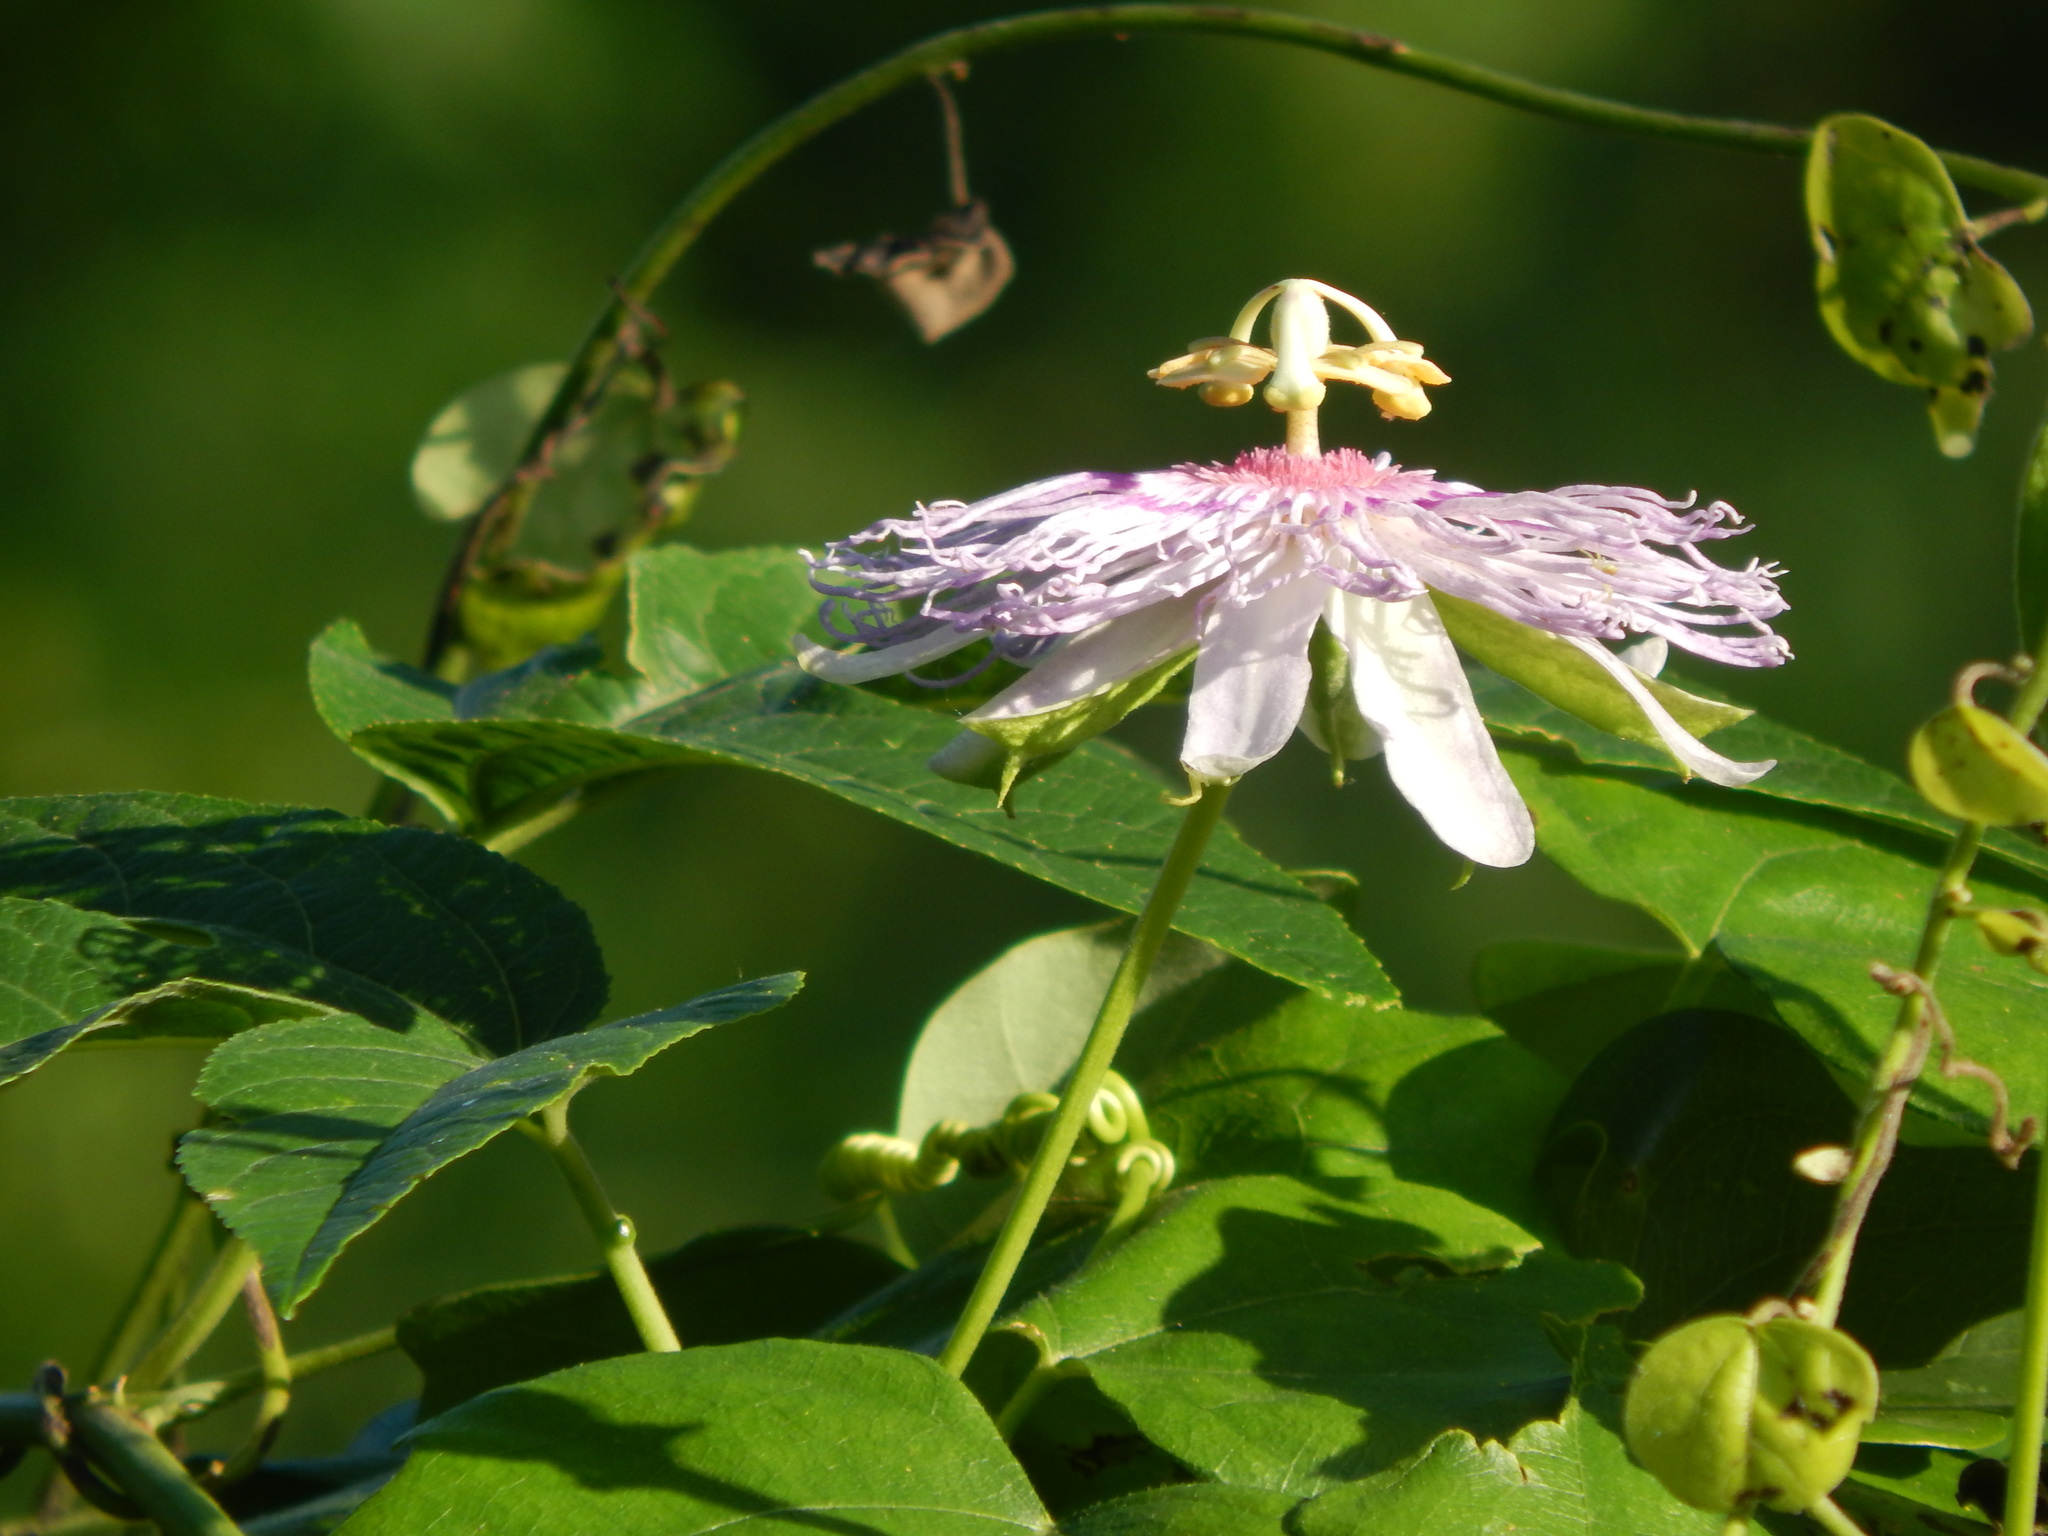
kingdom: Plantae
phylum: Tracheophyta
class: Magnoliopsida
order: Malpighiales
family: Passifloraceae
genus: Passiflora
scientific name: Passiflora incarnata
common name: Apricot-vine
